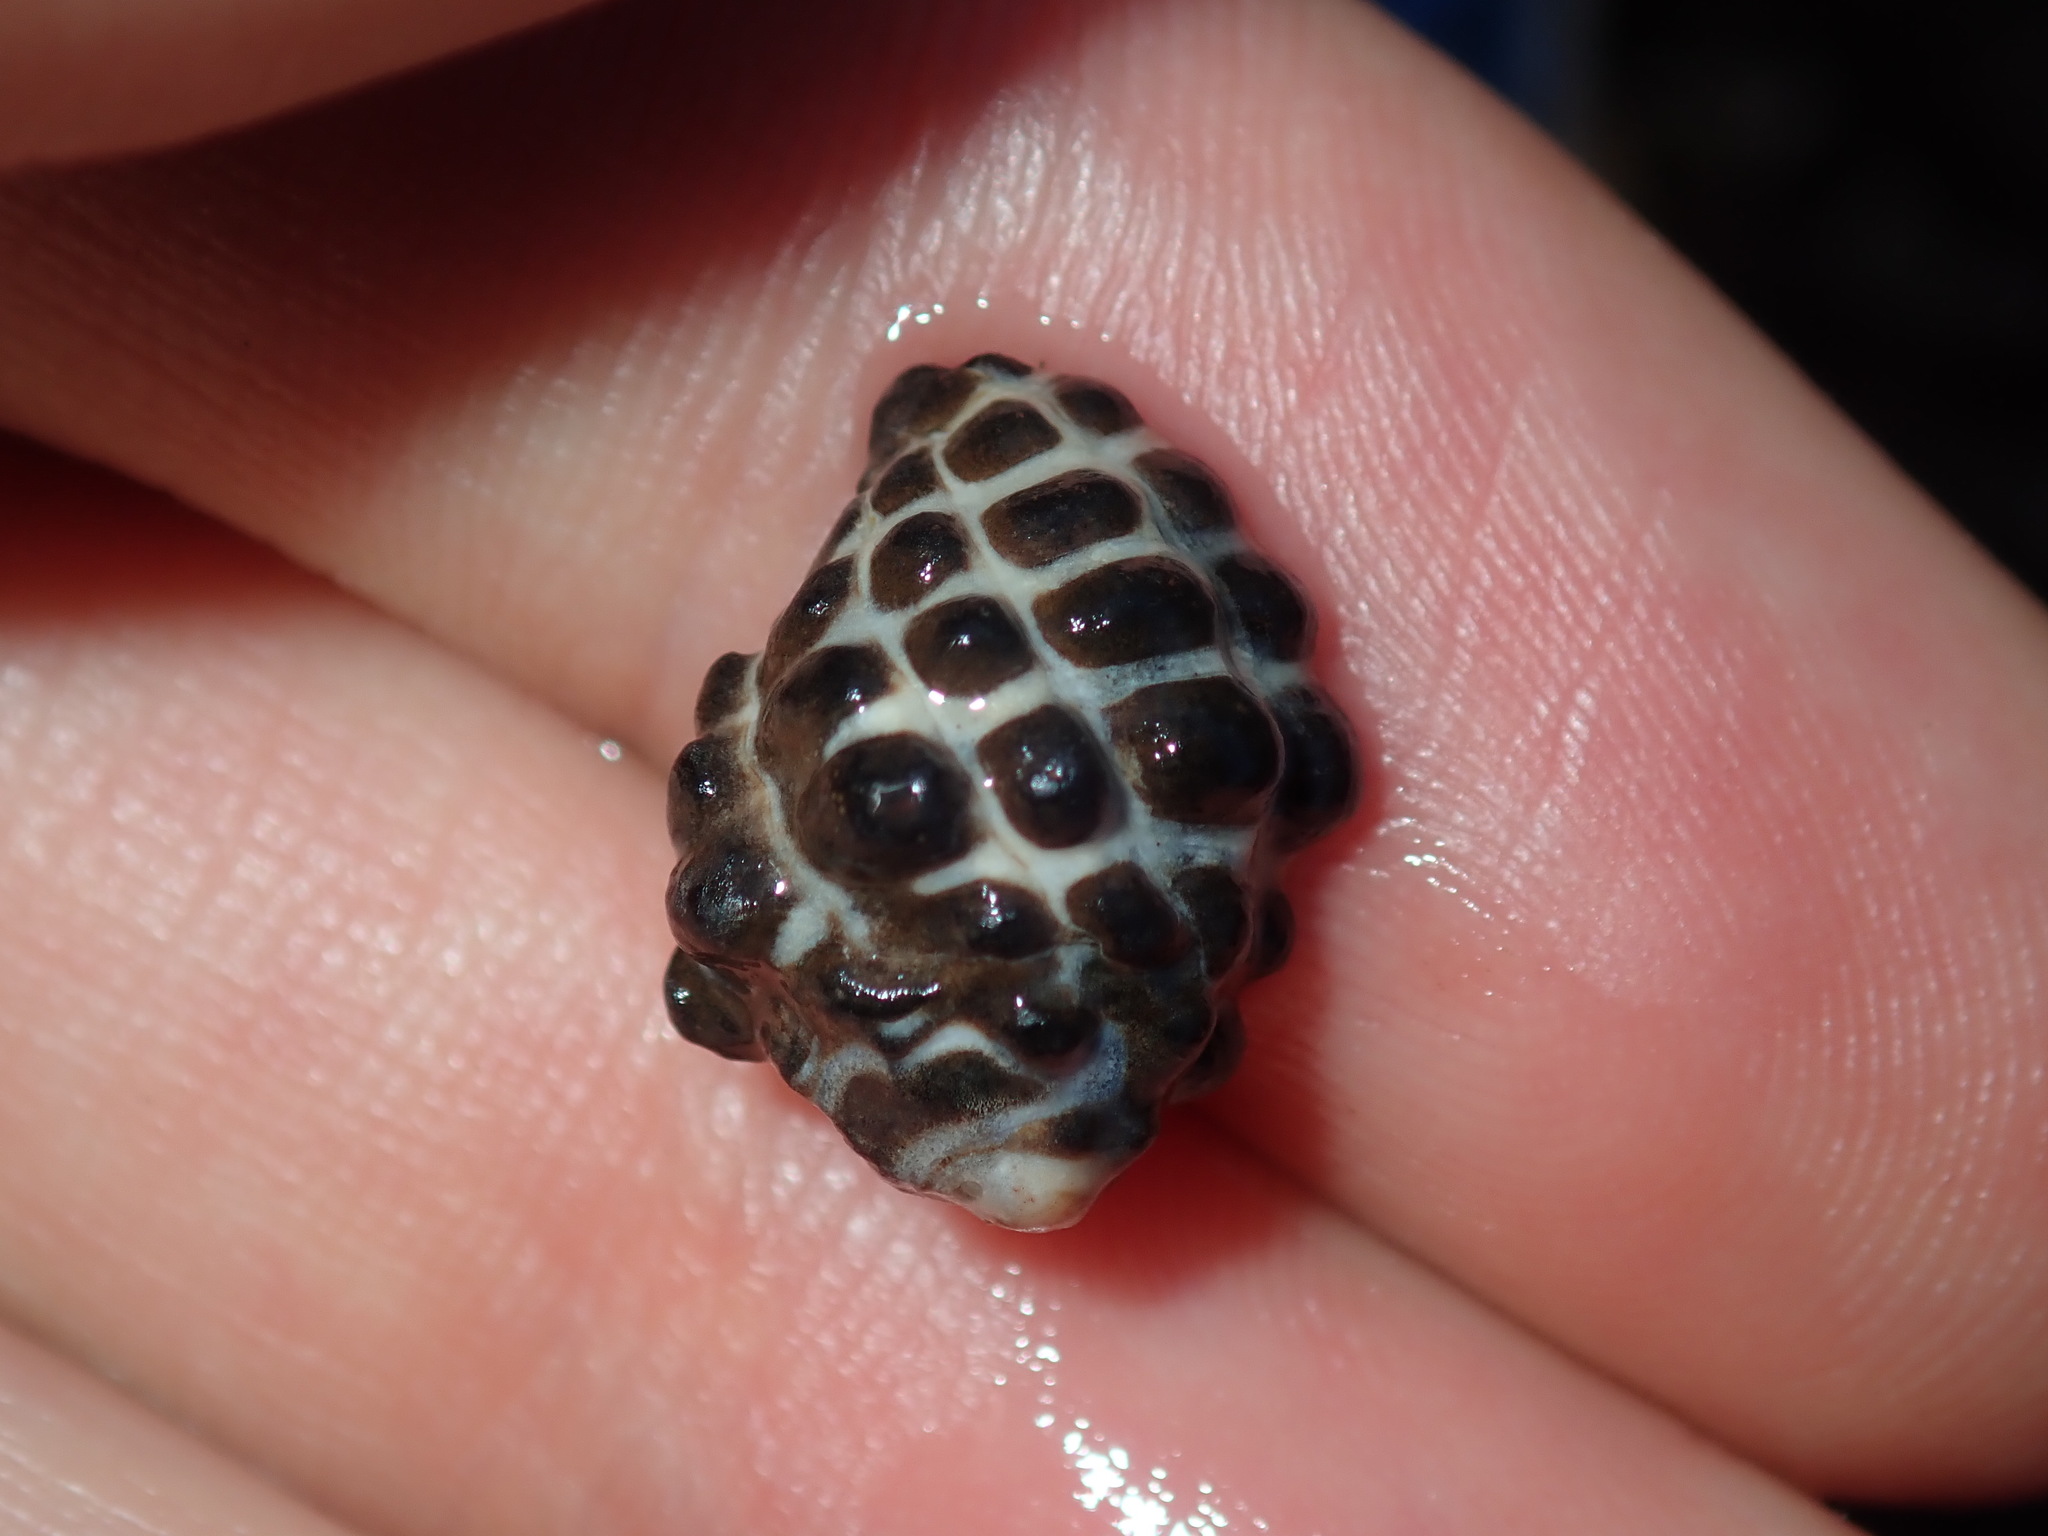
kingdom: Animalia
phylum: Mollusca
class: Gastropoda
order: Neogastropoda
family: Muricidae
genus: Tenguella
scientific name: Tenguella marginalba
